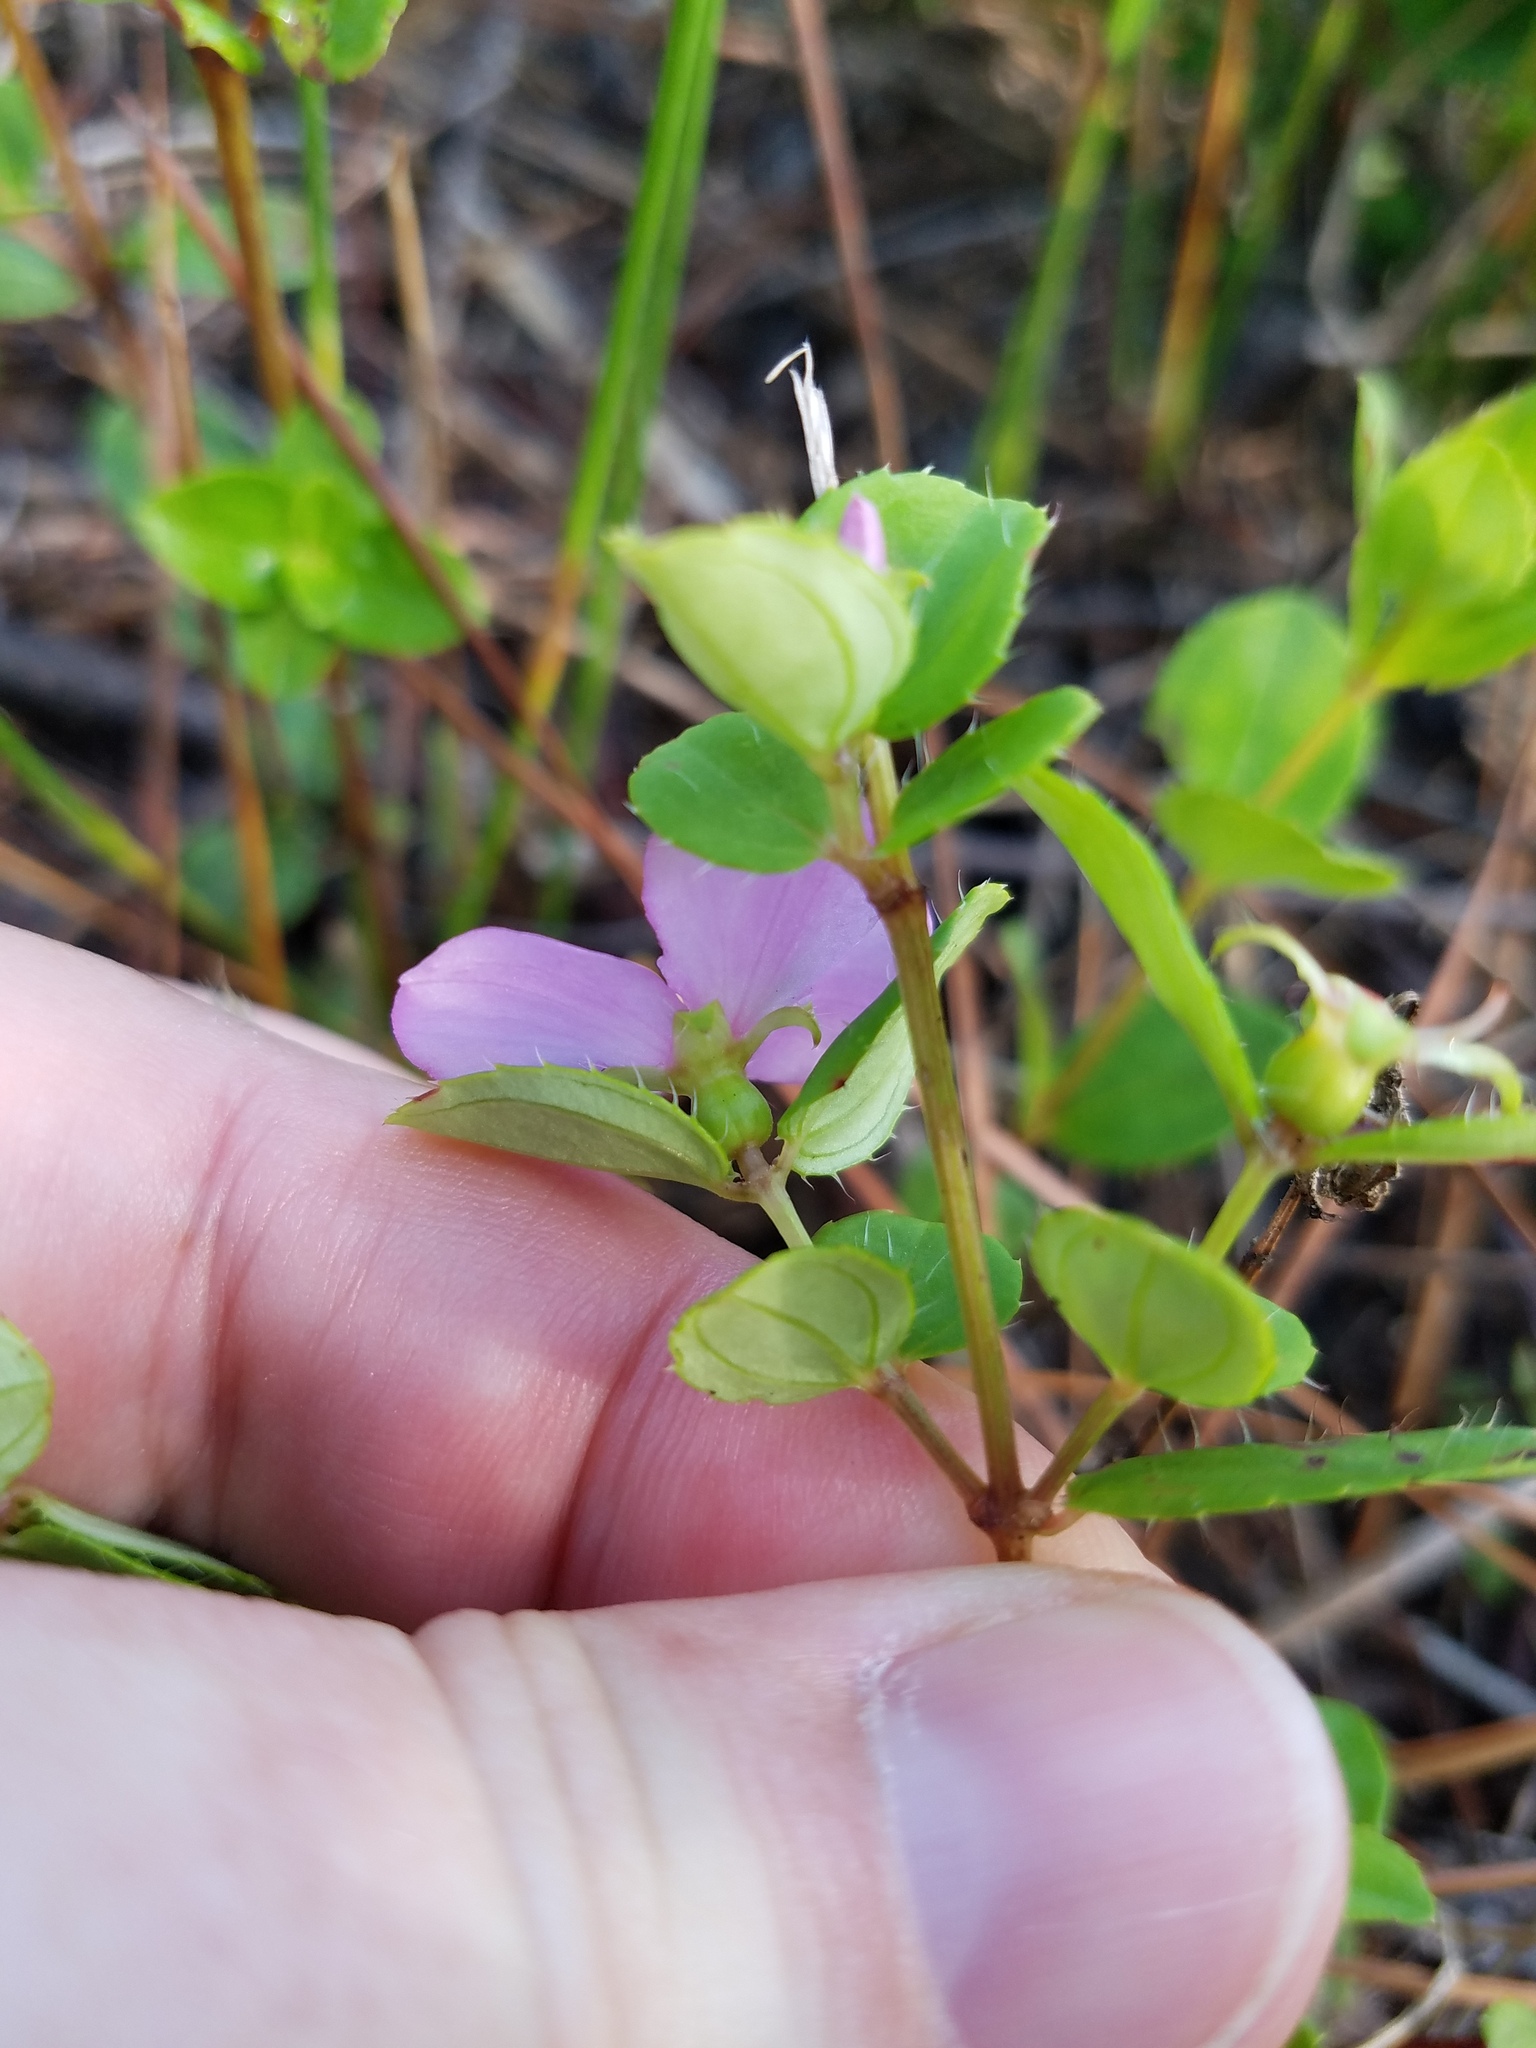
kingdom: Plantae
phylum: Tracheophyta
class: Magnoliopsida
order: Myrtales
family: Melastomataceae
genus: Rhexia
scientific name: Rhexia petiolata
